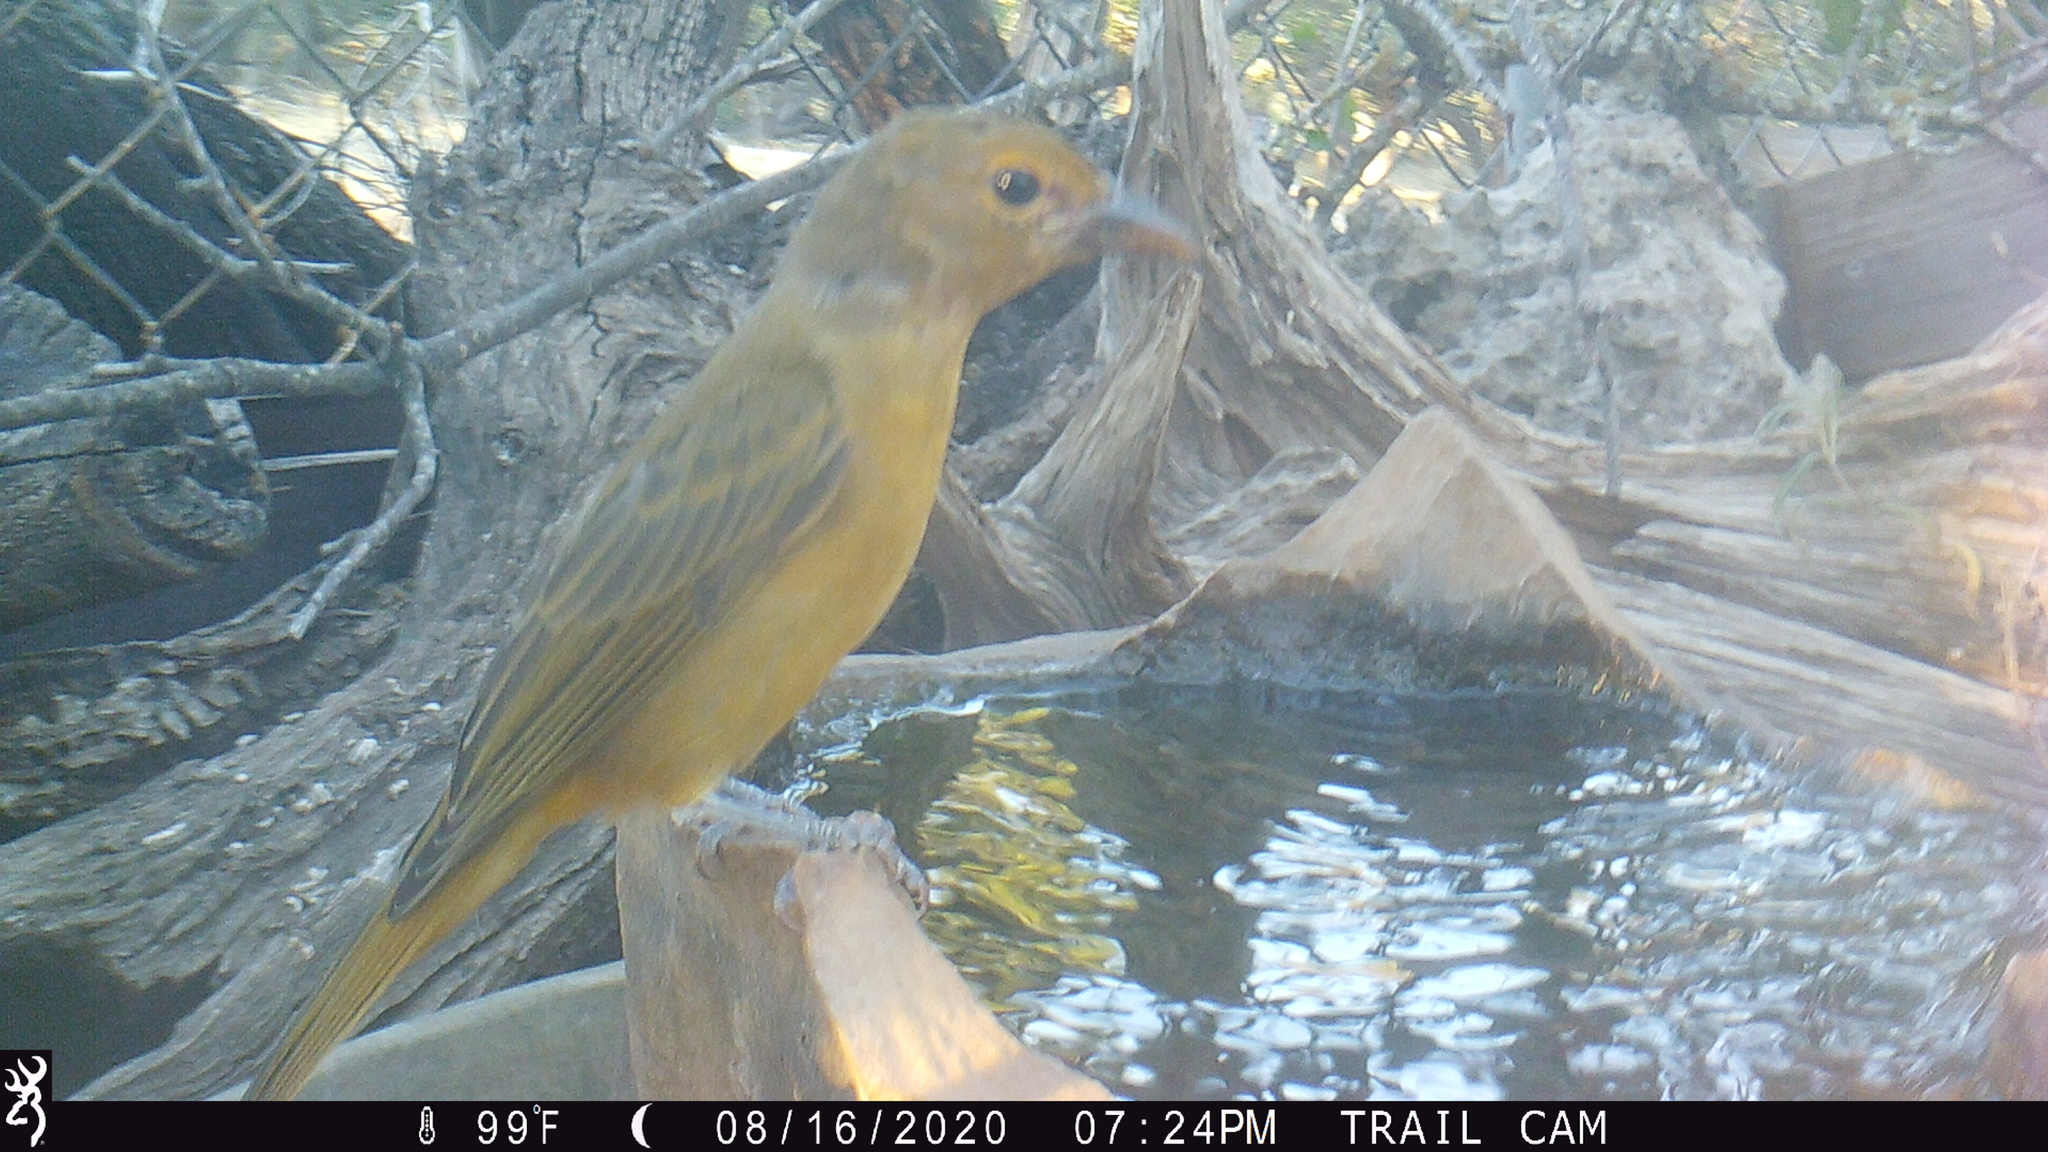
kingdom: Animalia
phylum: Chordata
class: Aves
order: Passeriformes
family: Cardinalidae
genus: Piranga
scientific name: Piranga rubra
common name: Summer tanager
